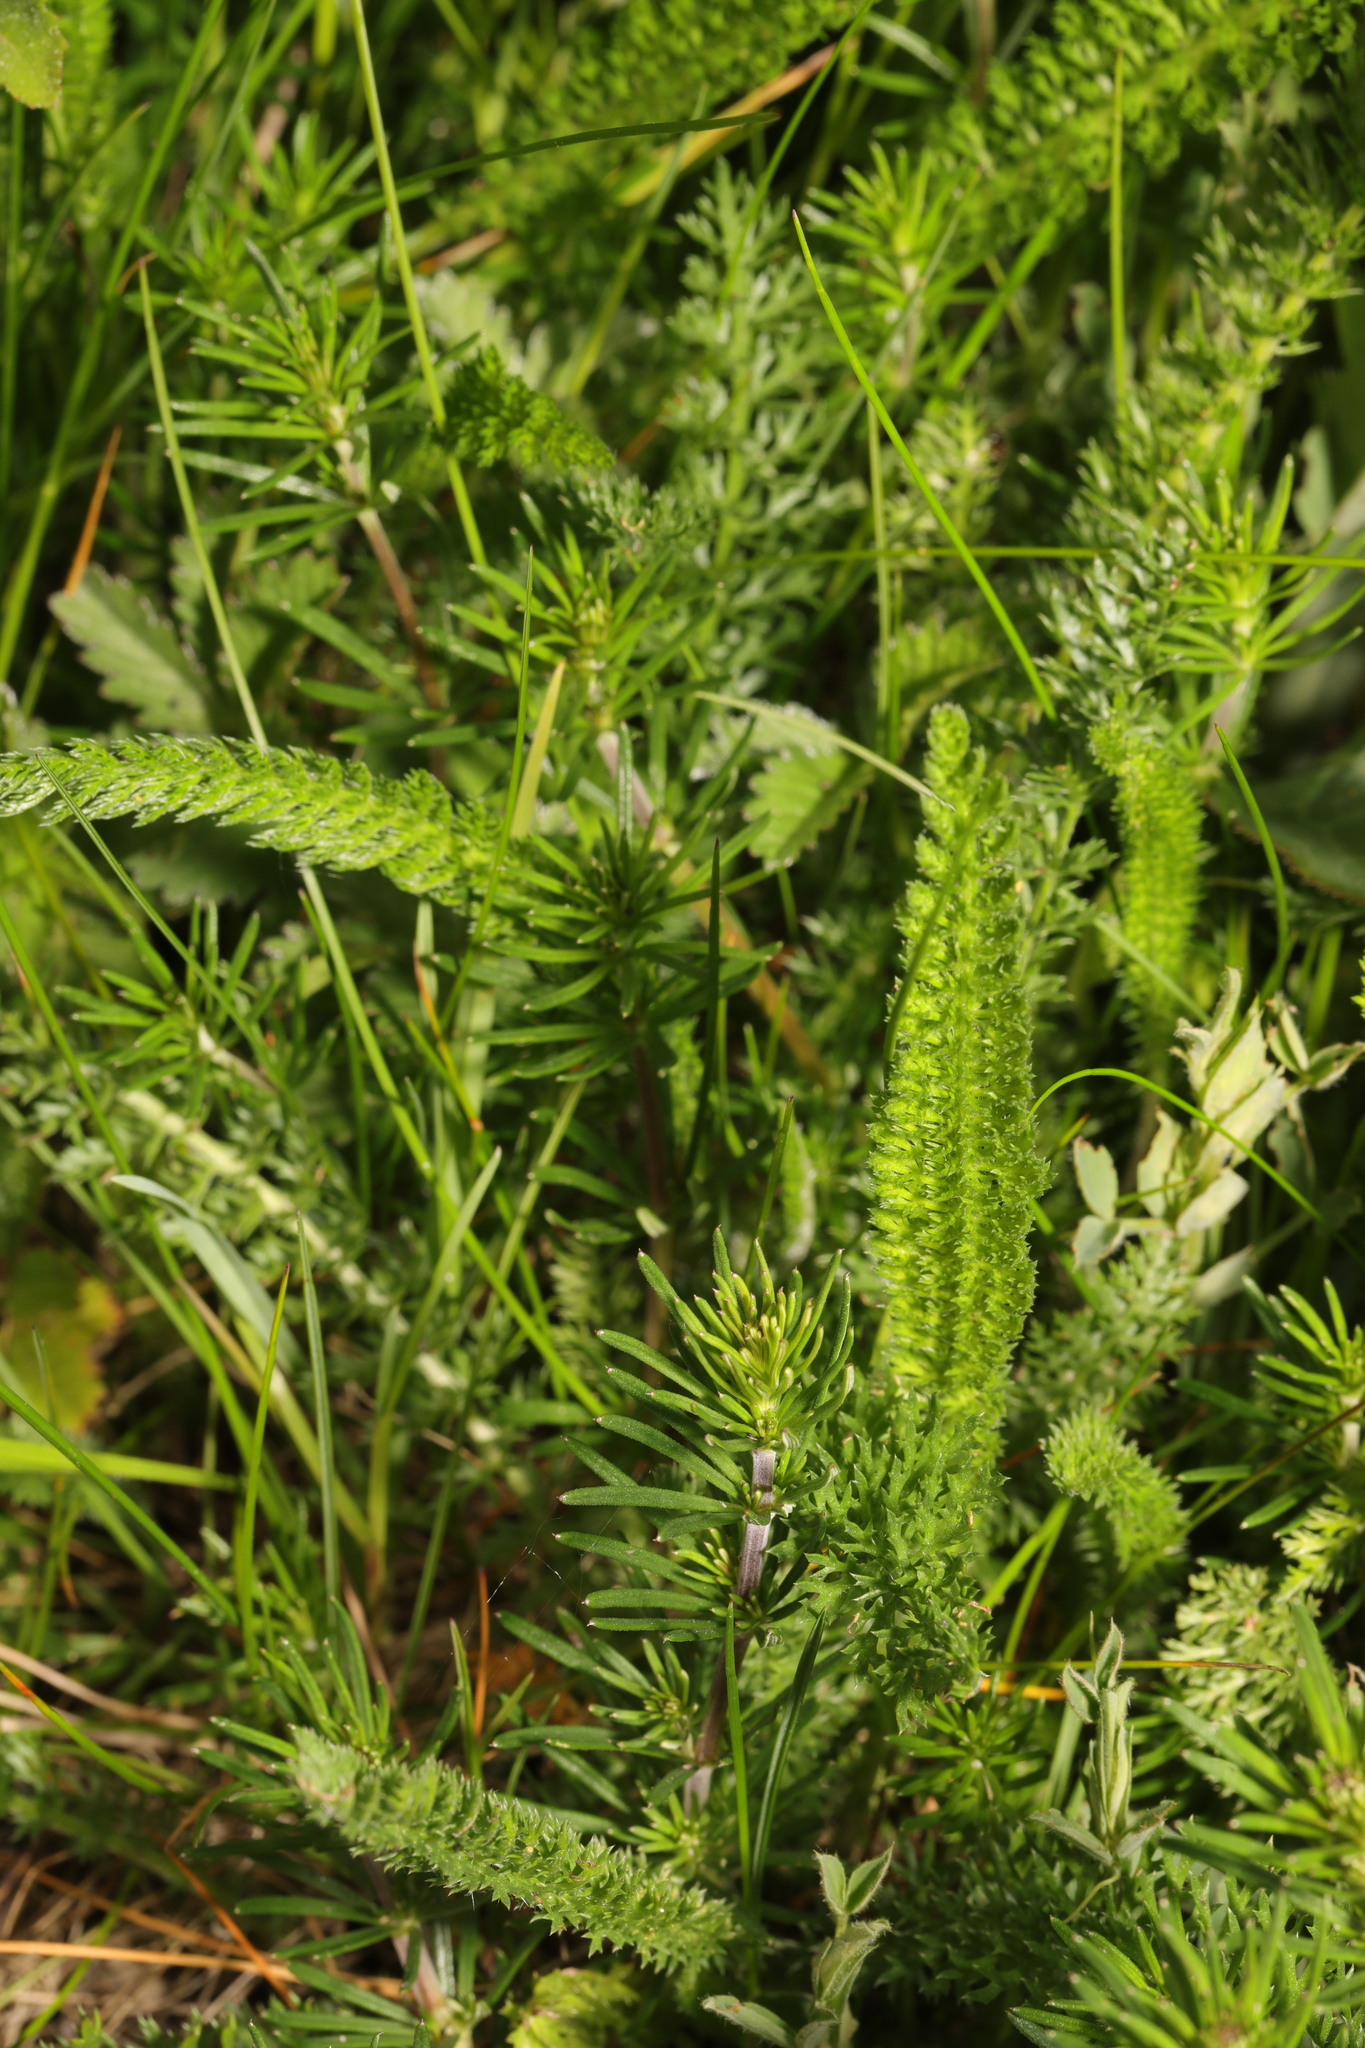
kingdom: Plantae
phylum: Tracheophyta
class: Magnoliopsida
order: Asterales
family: Asteraceae
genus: Achillea
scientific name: Achillea millefolium
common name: Yarrow
